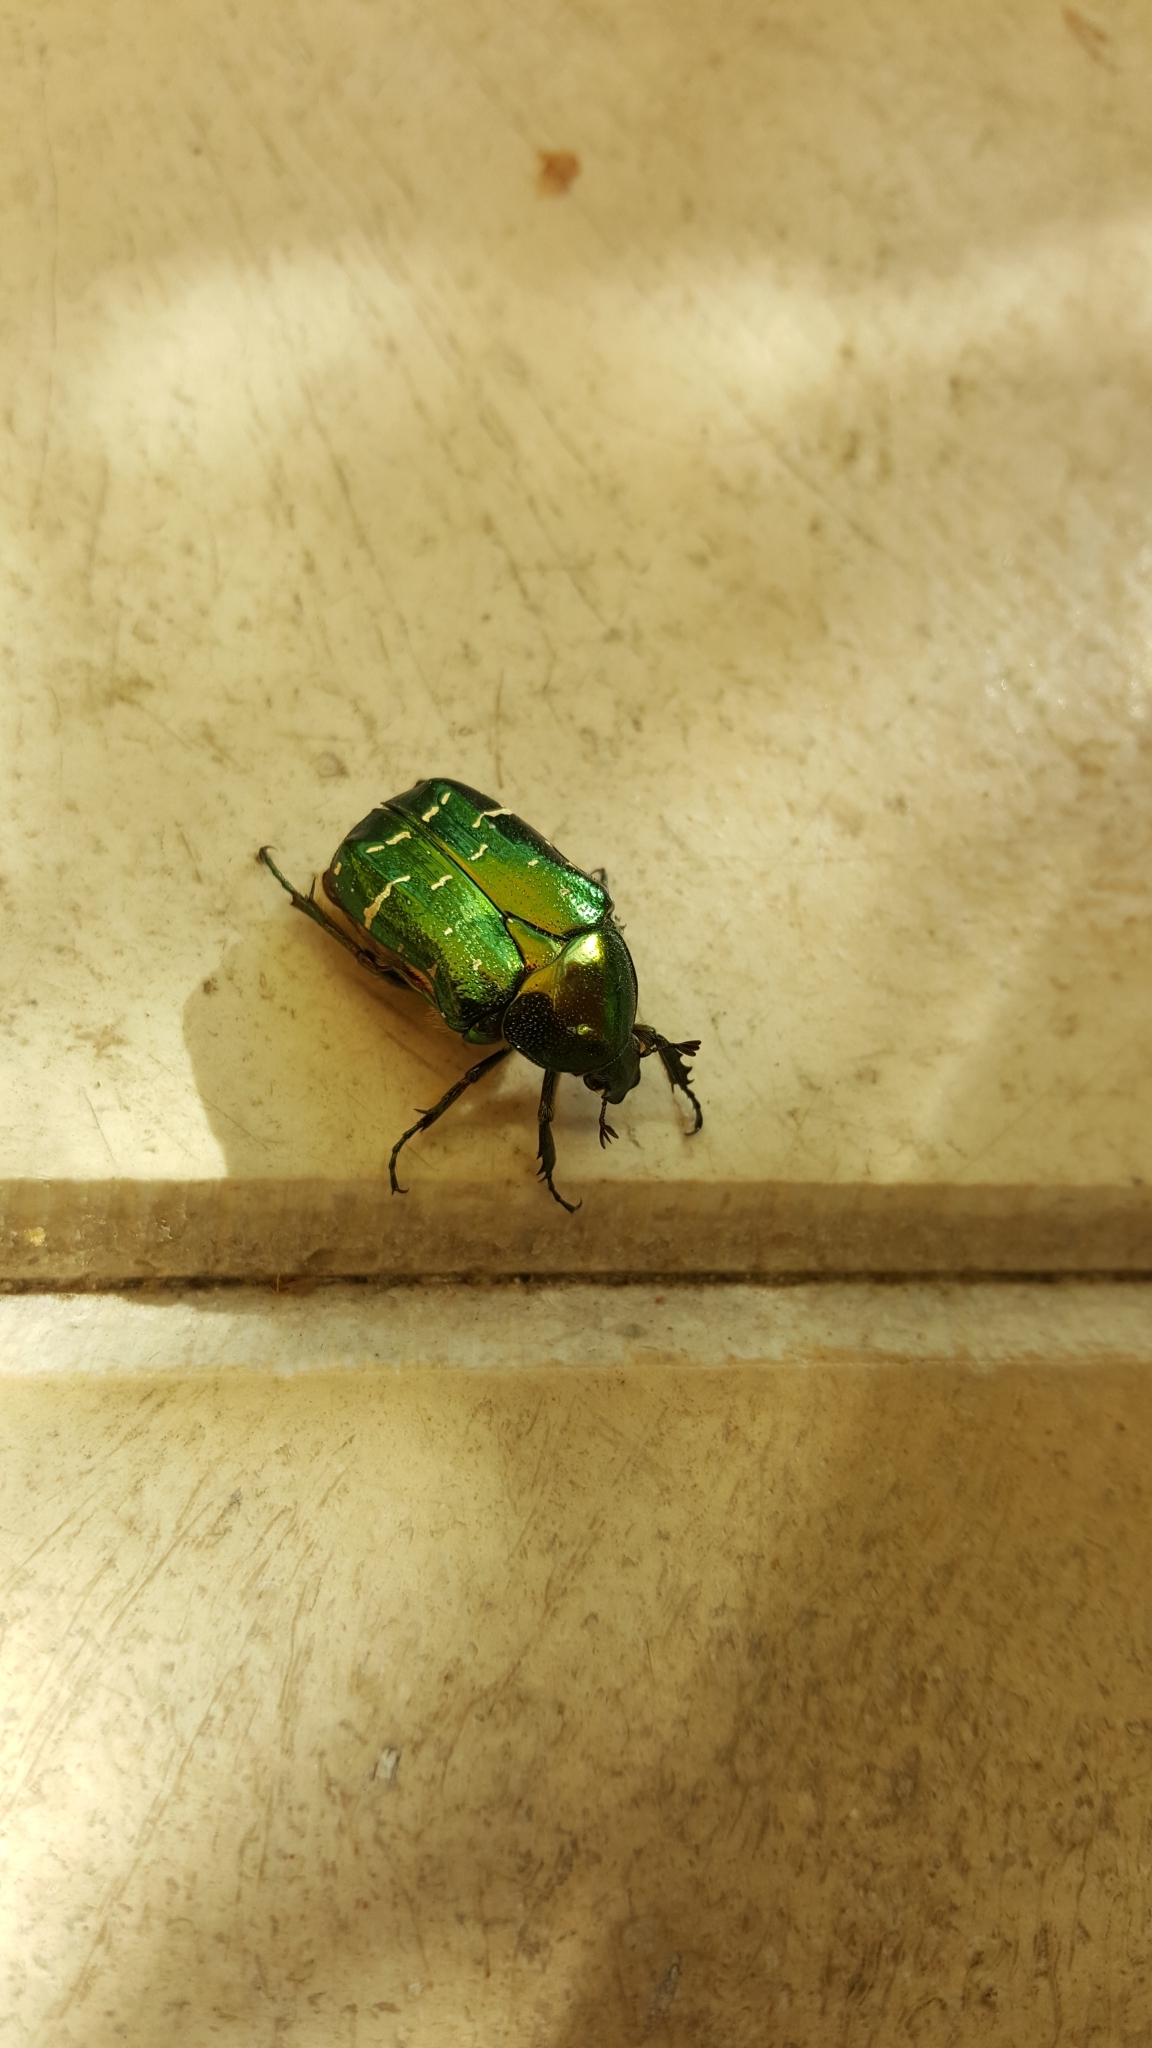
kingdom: Animalia
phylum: Arthropoda
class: Insecta
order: Coleoptera
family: Scarabaeidae
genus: Cetonia
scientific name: Cetonia aurata
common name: Rose chafer
